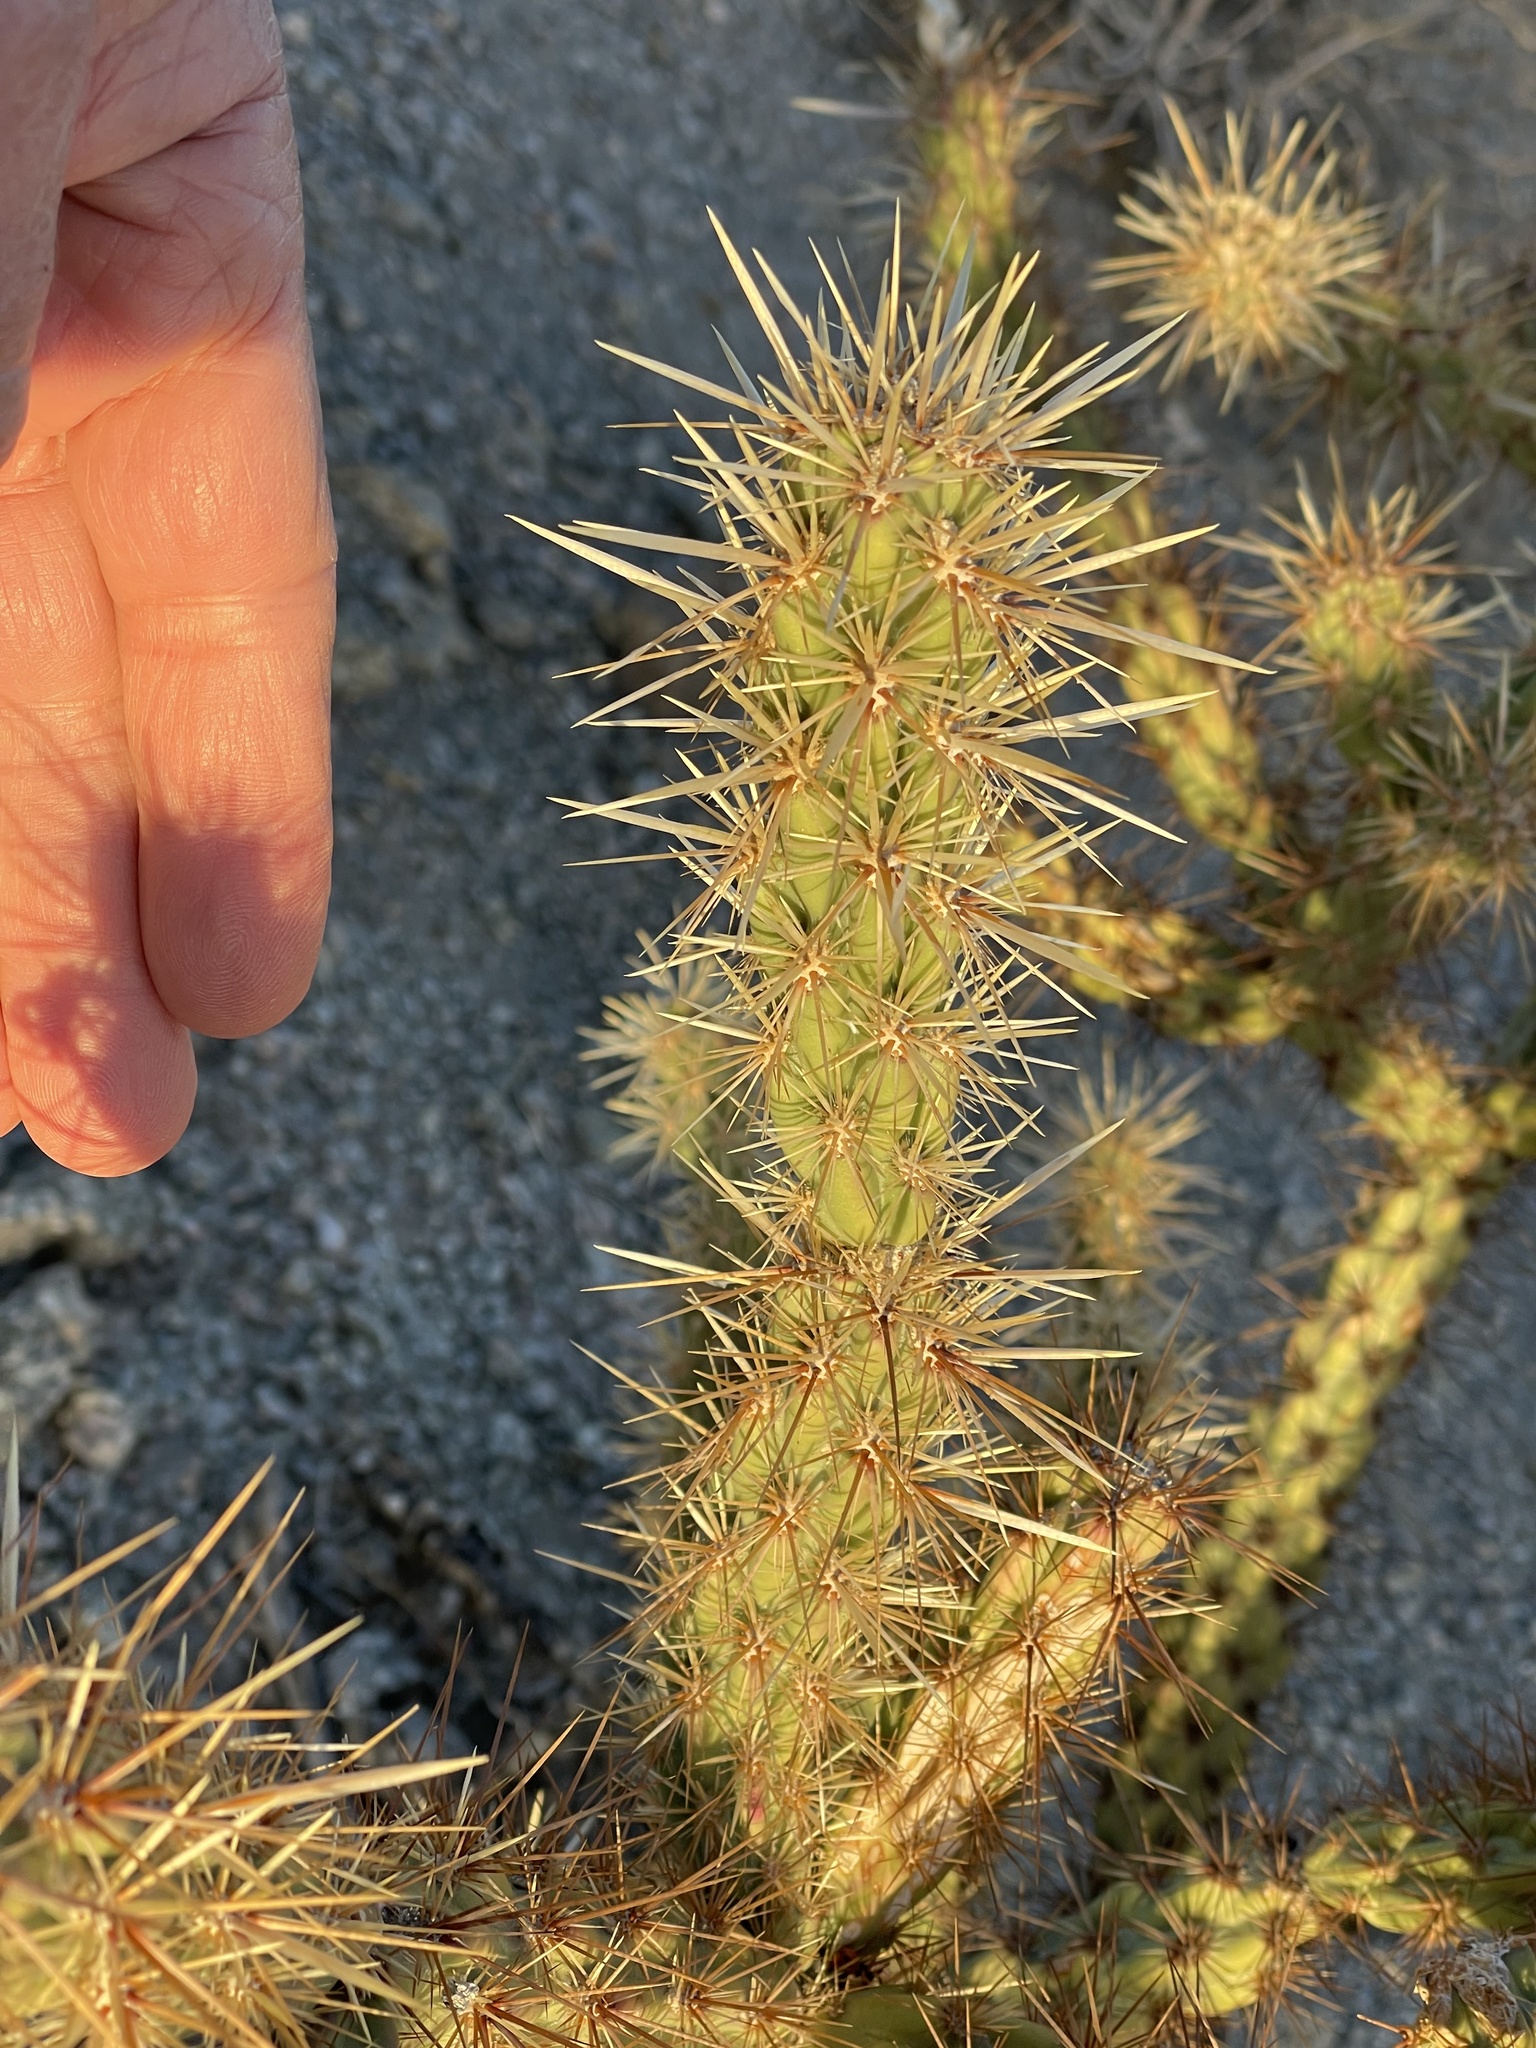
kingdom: Plantae
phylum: Tracheophyta
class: Magnoliopsida
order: Caryophyllales
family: Cactaceae
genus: Cylindropuntia
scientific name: Cylindropuntia acanthocarpa
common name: Buckhorn cholla
